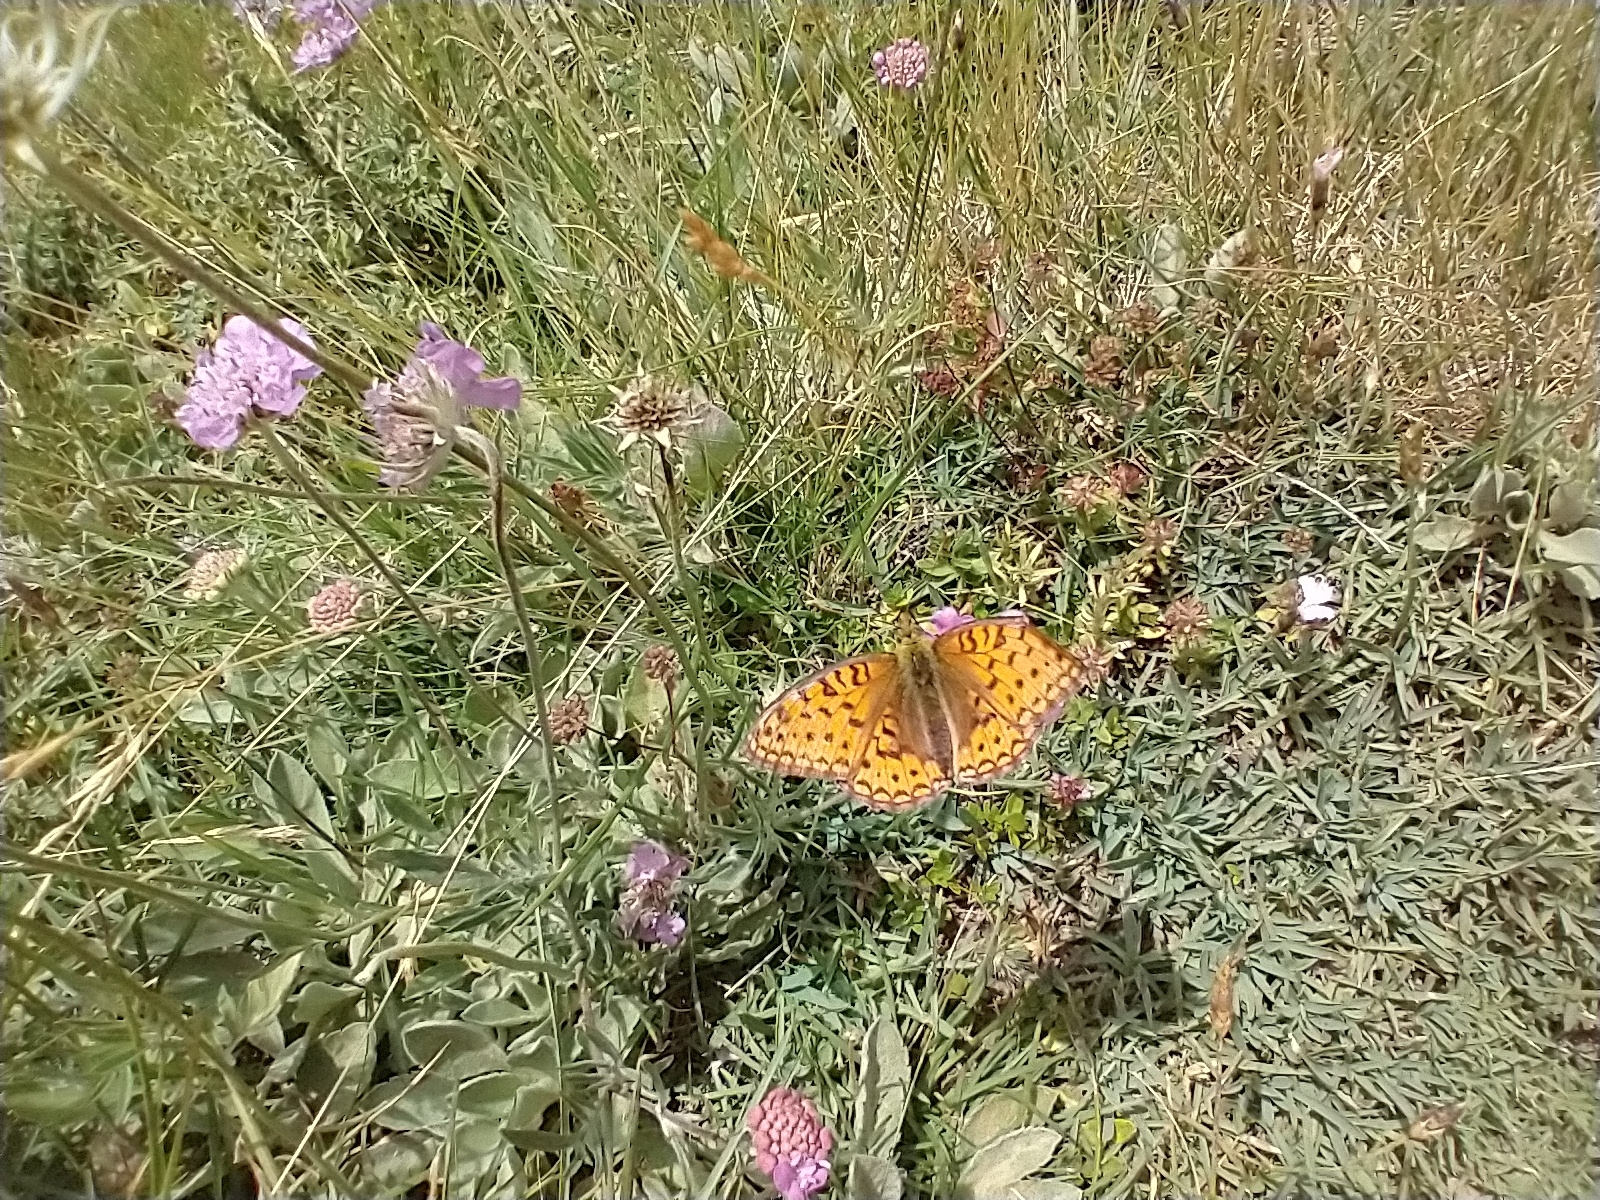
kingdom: Animalia
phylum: Arthropoda
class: Insecta
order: Lepidoptera
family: Nymphalidae
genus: Fabriciana
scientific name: Fabriciana niobe
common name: Niobe fritillary
